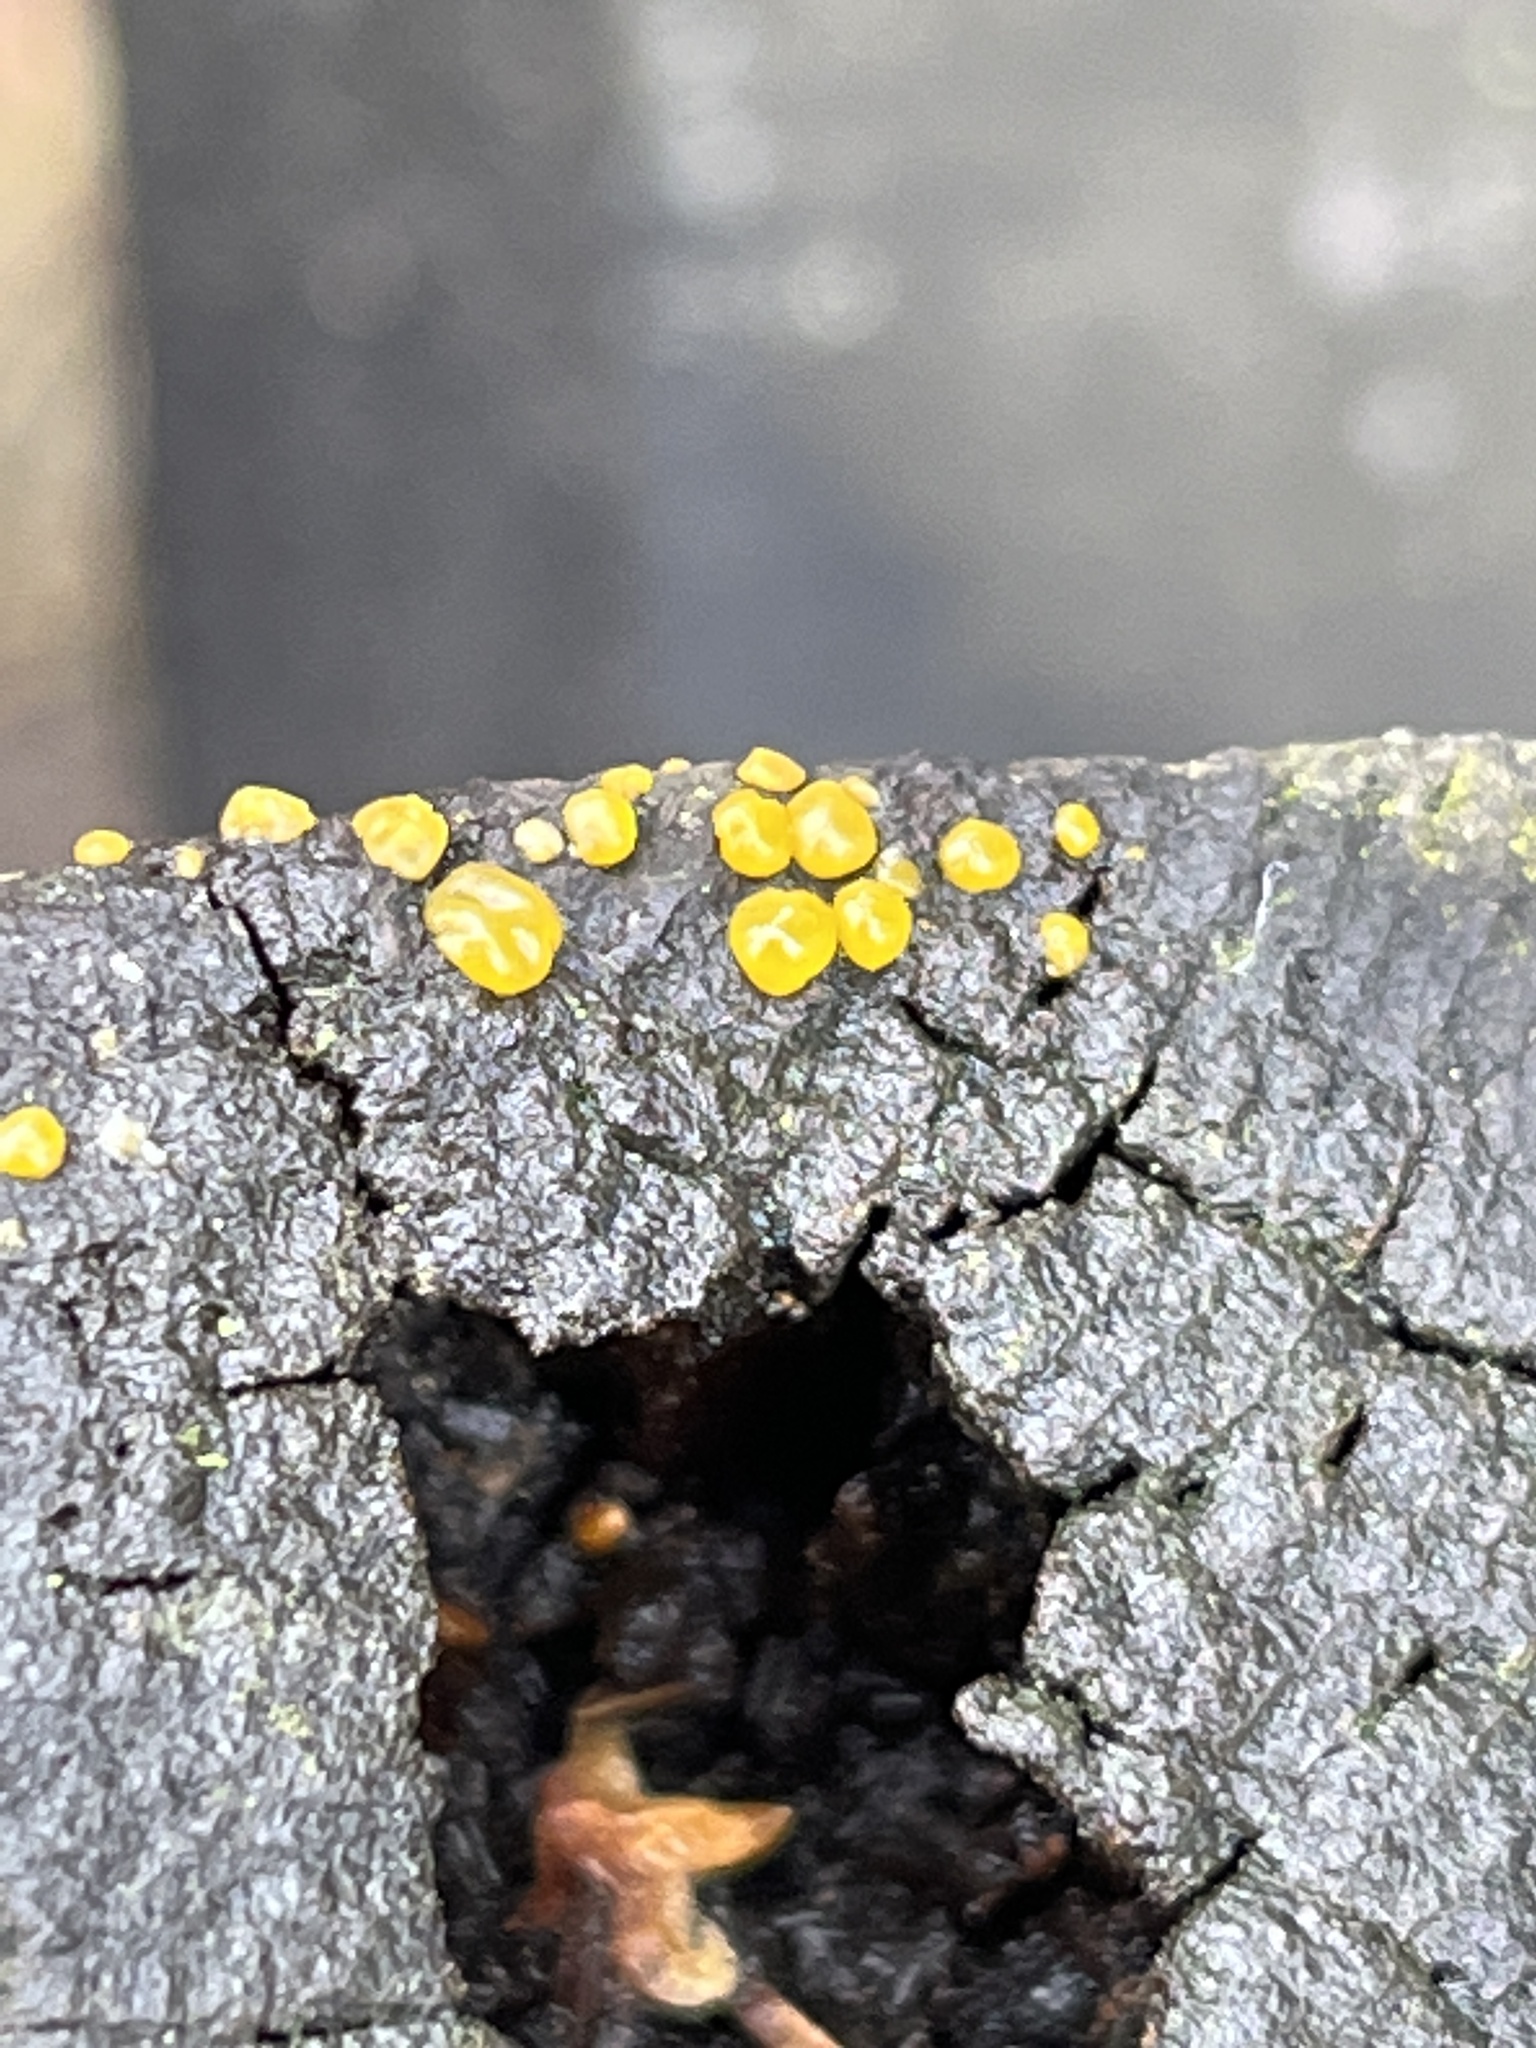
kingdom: Fungi
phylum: Basidiomycota
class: Dacrymycetes
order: Dacrymycetales
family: Dacrymycetaceae
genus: Dacrymyces
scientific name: Dacrymyces stillatus
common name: Common jelly spot
